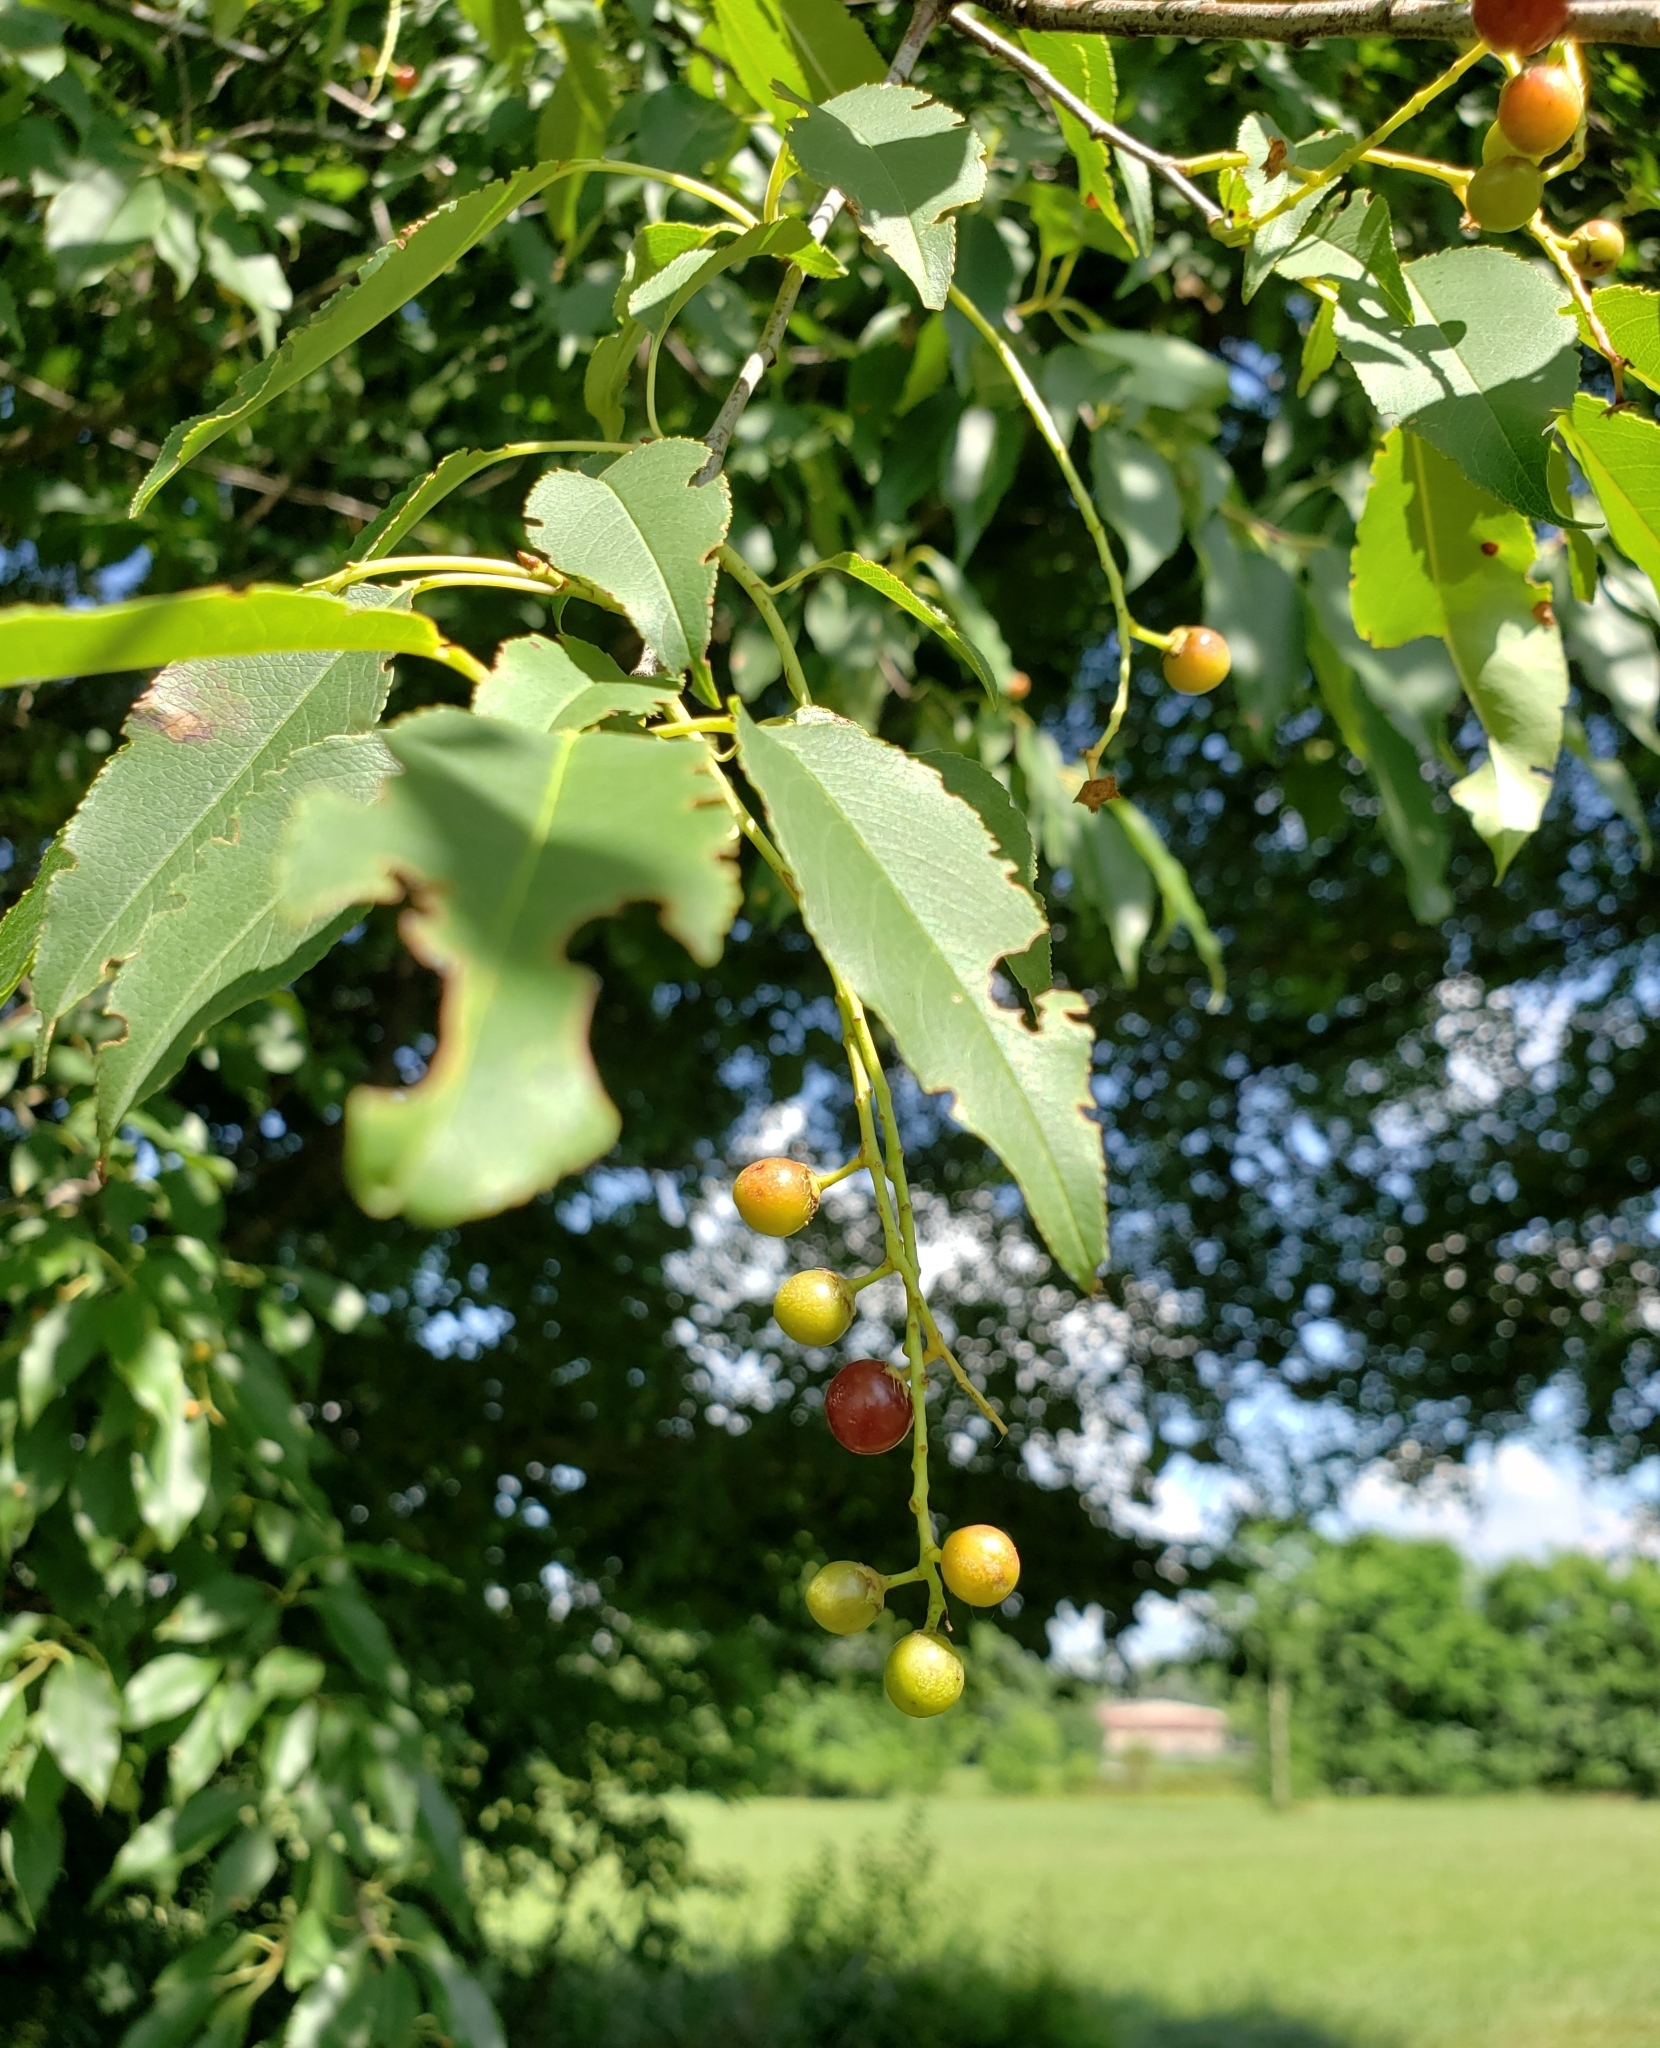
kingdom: Plantae
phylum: Tracheophyta
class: Magnoliopsida
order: Rosales
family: Rosaceae
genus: Prunus
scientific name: Prunus serotina
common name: Black cherry
